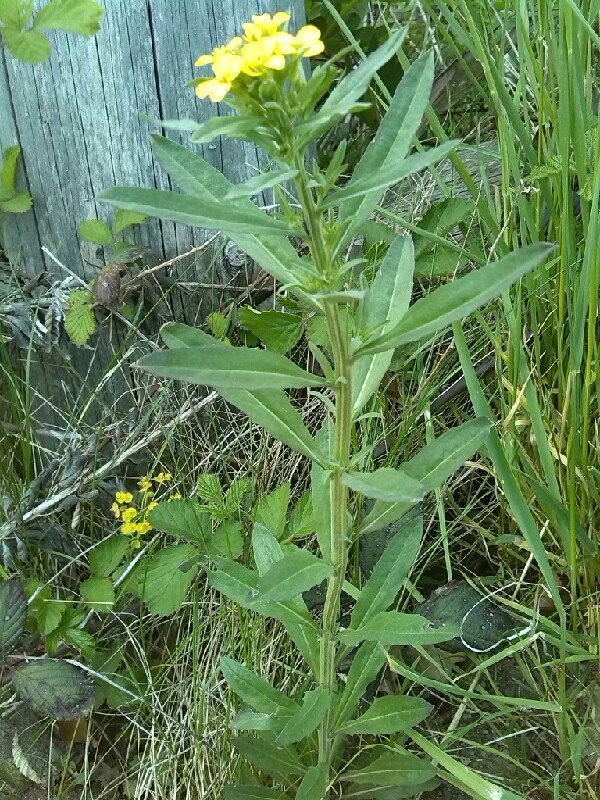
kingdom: Plantae
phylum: Tracheophyta
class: Magnoliopsida
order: Brassicales
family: Brassicaceae
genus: Erysimum
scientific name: Erysimum cheiranthoides
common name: Treacle mustard
